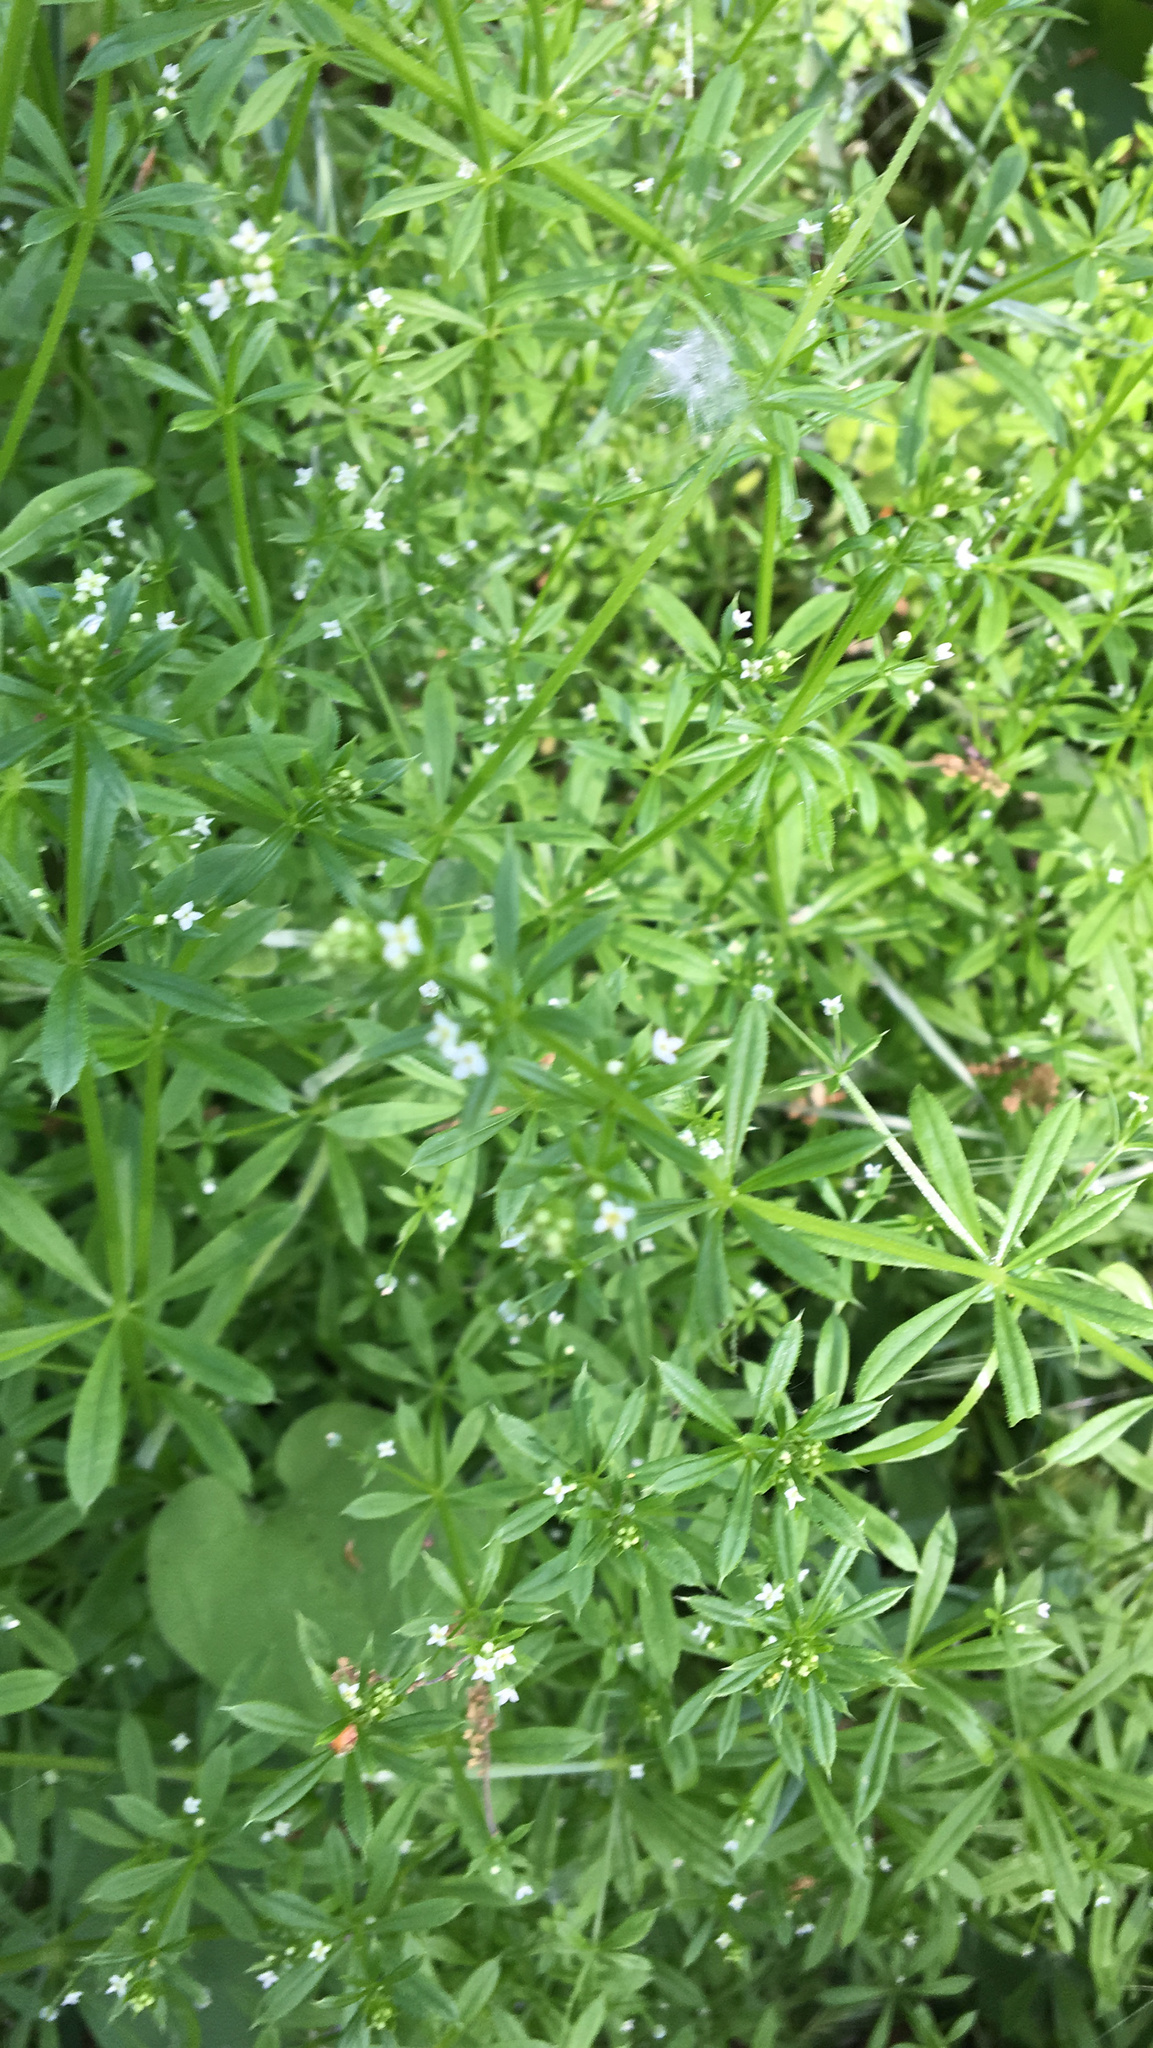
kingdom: Plantae
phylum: Tracheophyta
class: Magnoliopsida
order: Gentianales
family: Rubiaceae
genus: Galium
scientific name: Galium aparine
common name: Cleavers
